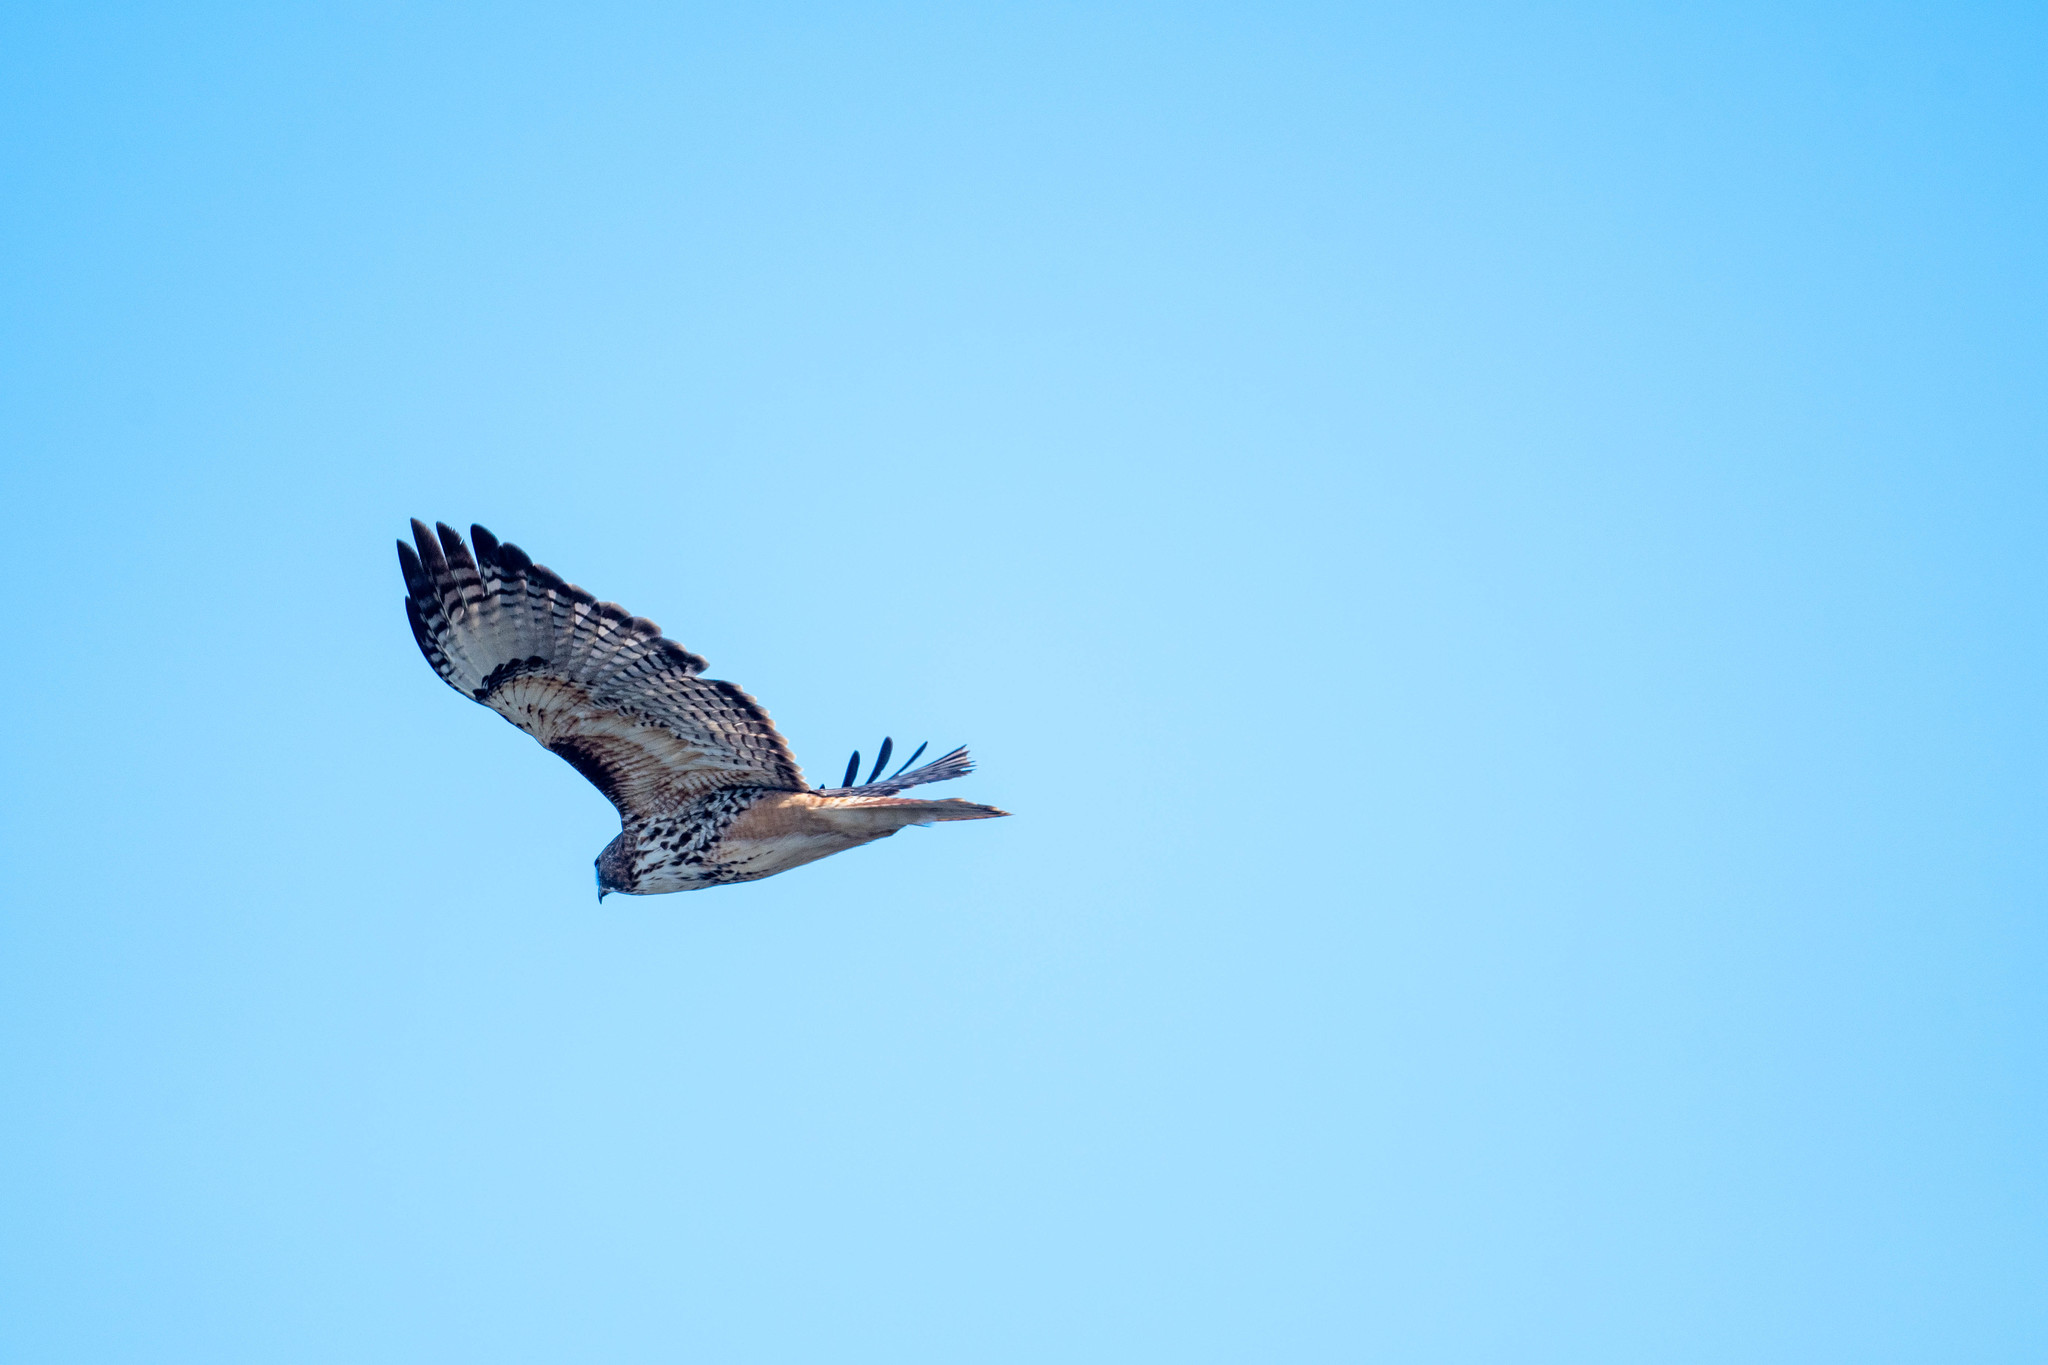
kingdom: Animalia
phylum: Chordata
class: Aves
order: Accipitriformes
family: Accipitridae
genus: Buteo
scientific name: Buteo jamaicensis
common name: Red-tailed hawk
